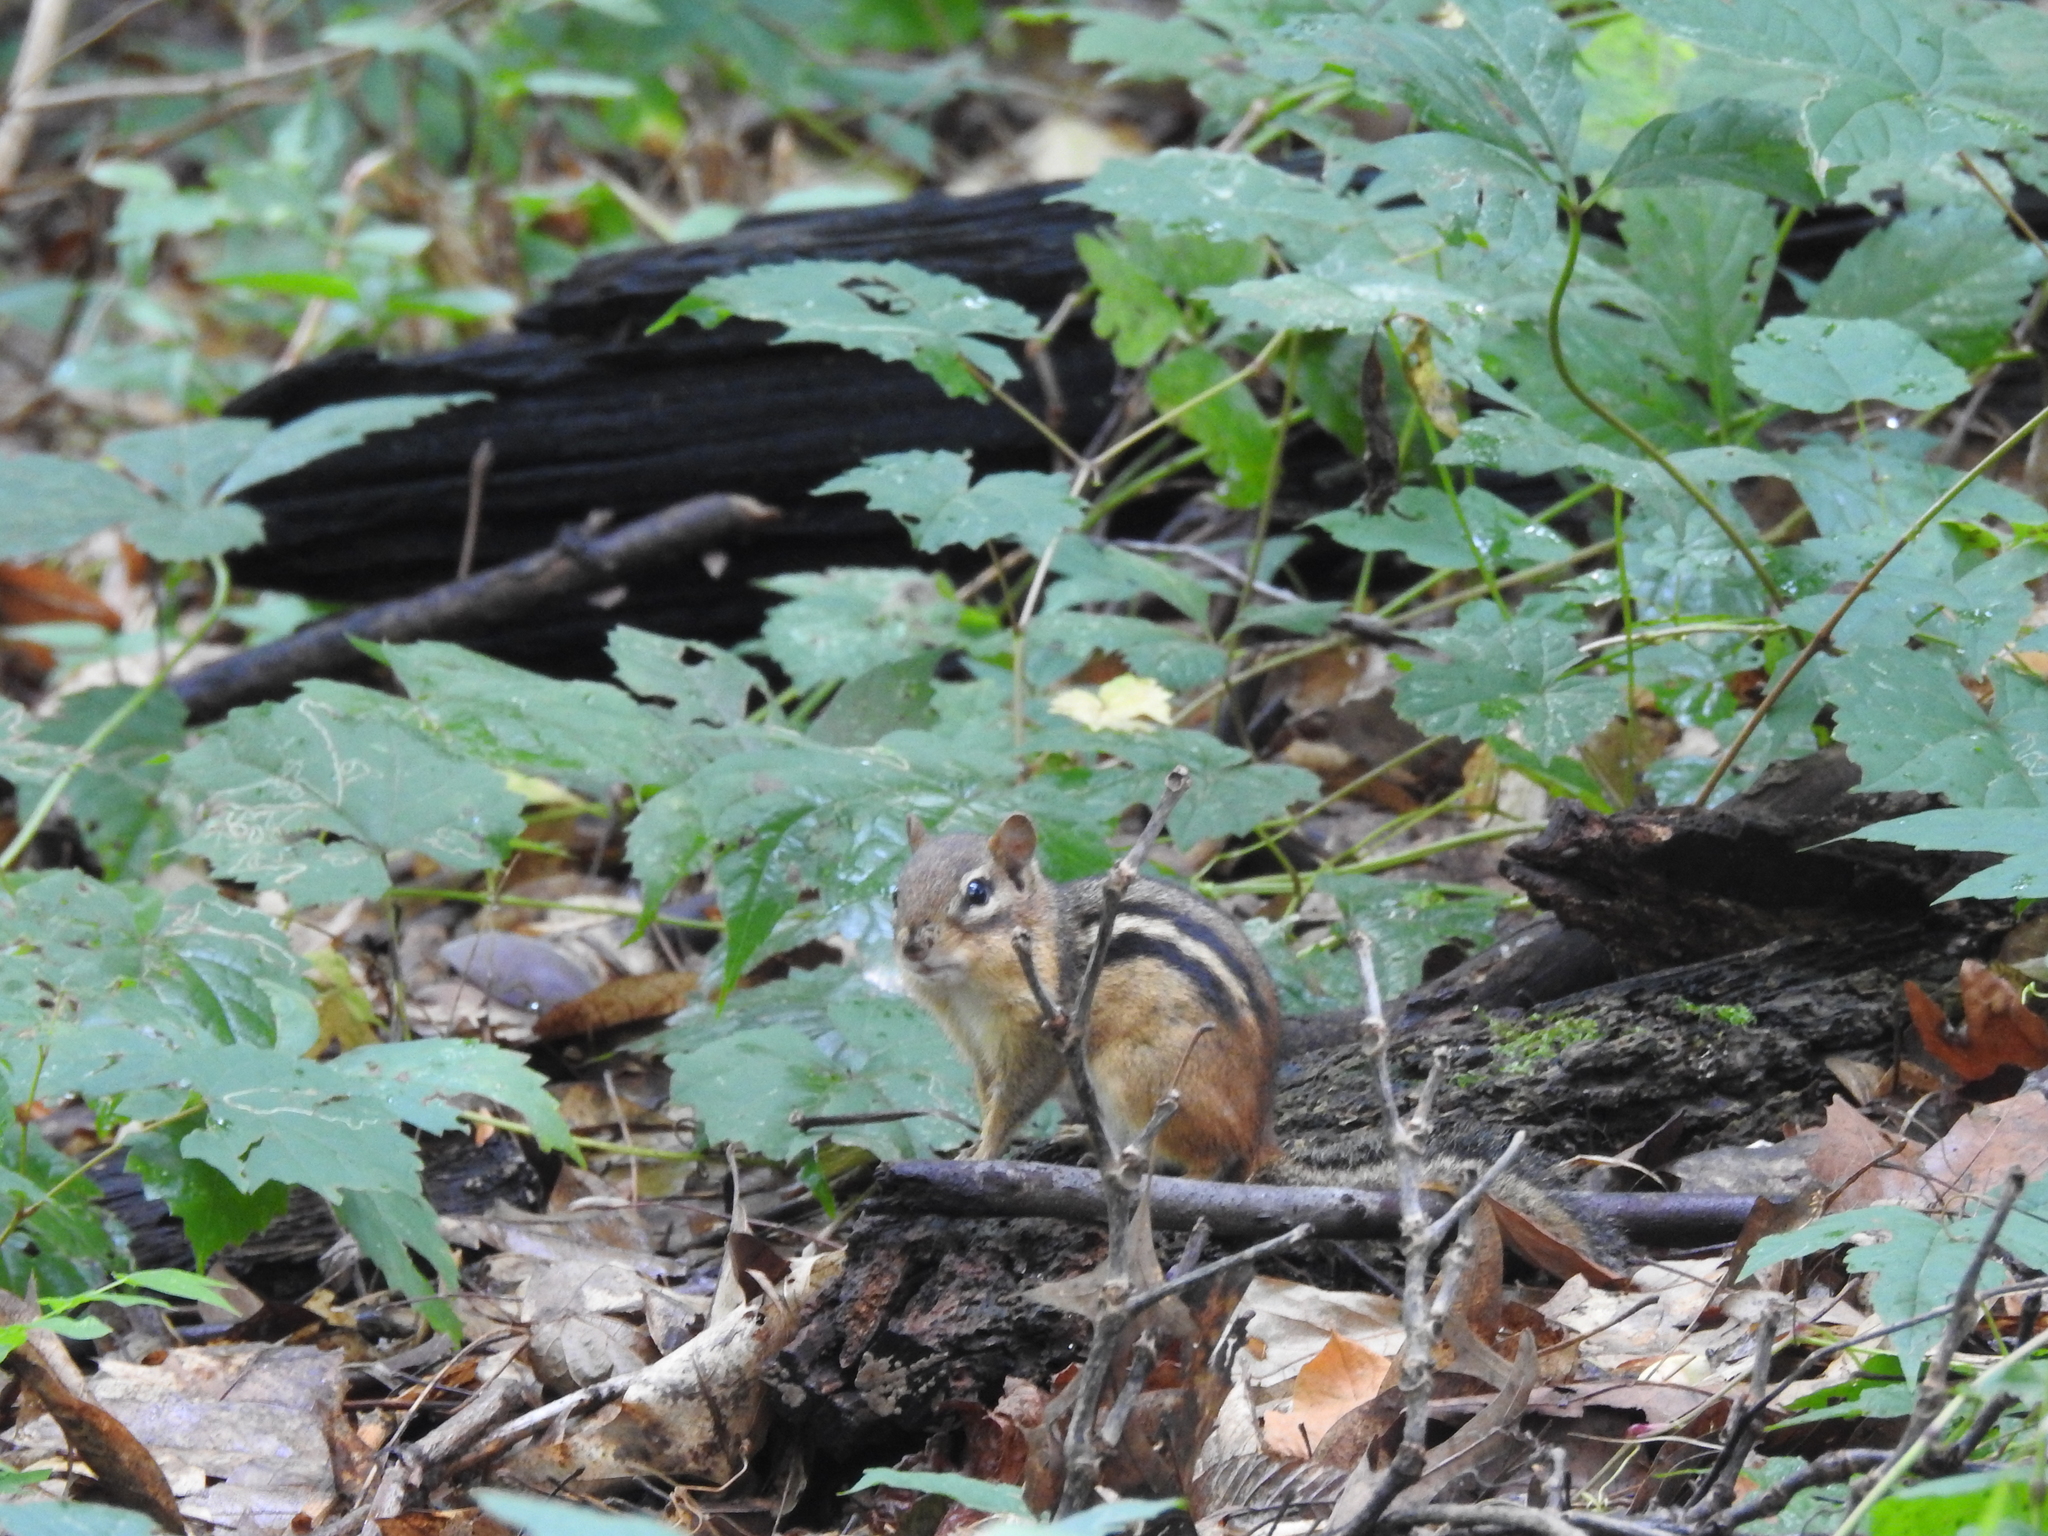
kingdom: Animalia
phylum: Chordata
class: Mammalia
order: Rodentia
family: Sciuridae
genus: Tamias
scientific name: Tamias striatus
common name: Eastern chipmunk
